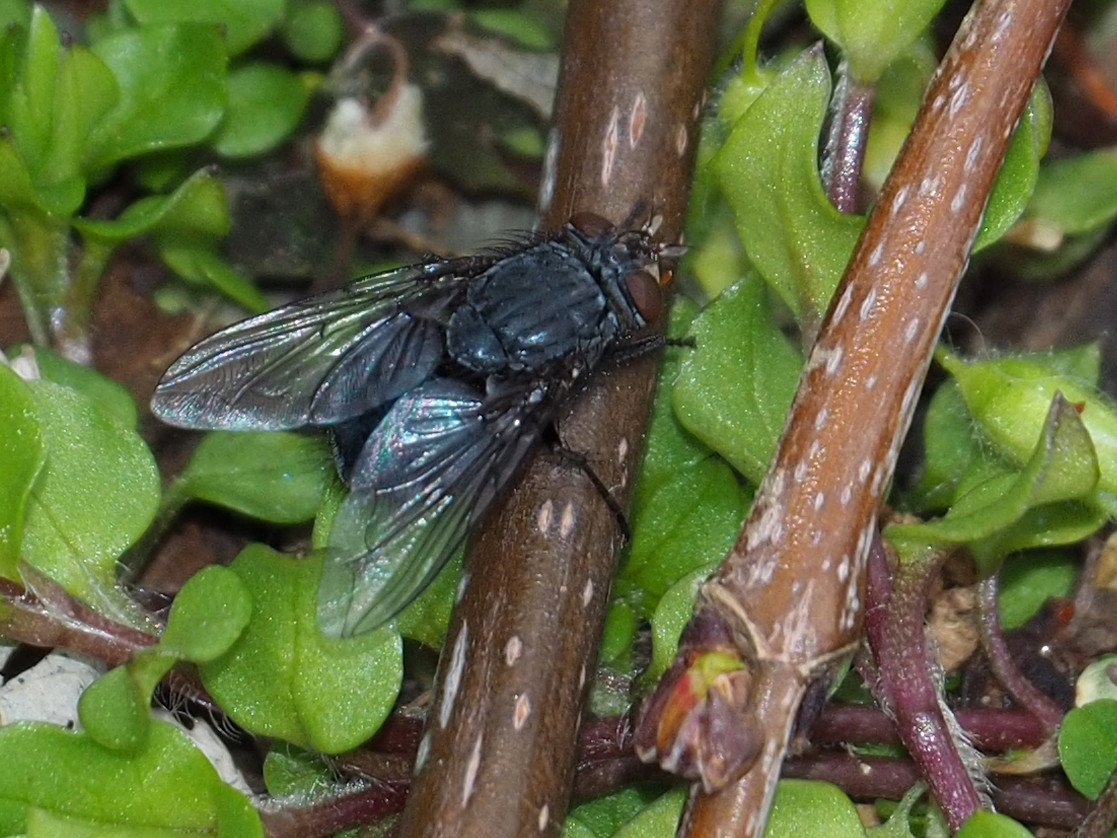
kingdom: Animalia
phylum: Arthropoda
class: Insecta
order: Diptera
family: Calliphoridae
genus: Calliphora
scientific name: Calliphora
